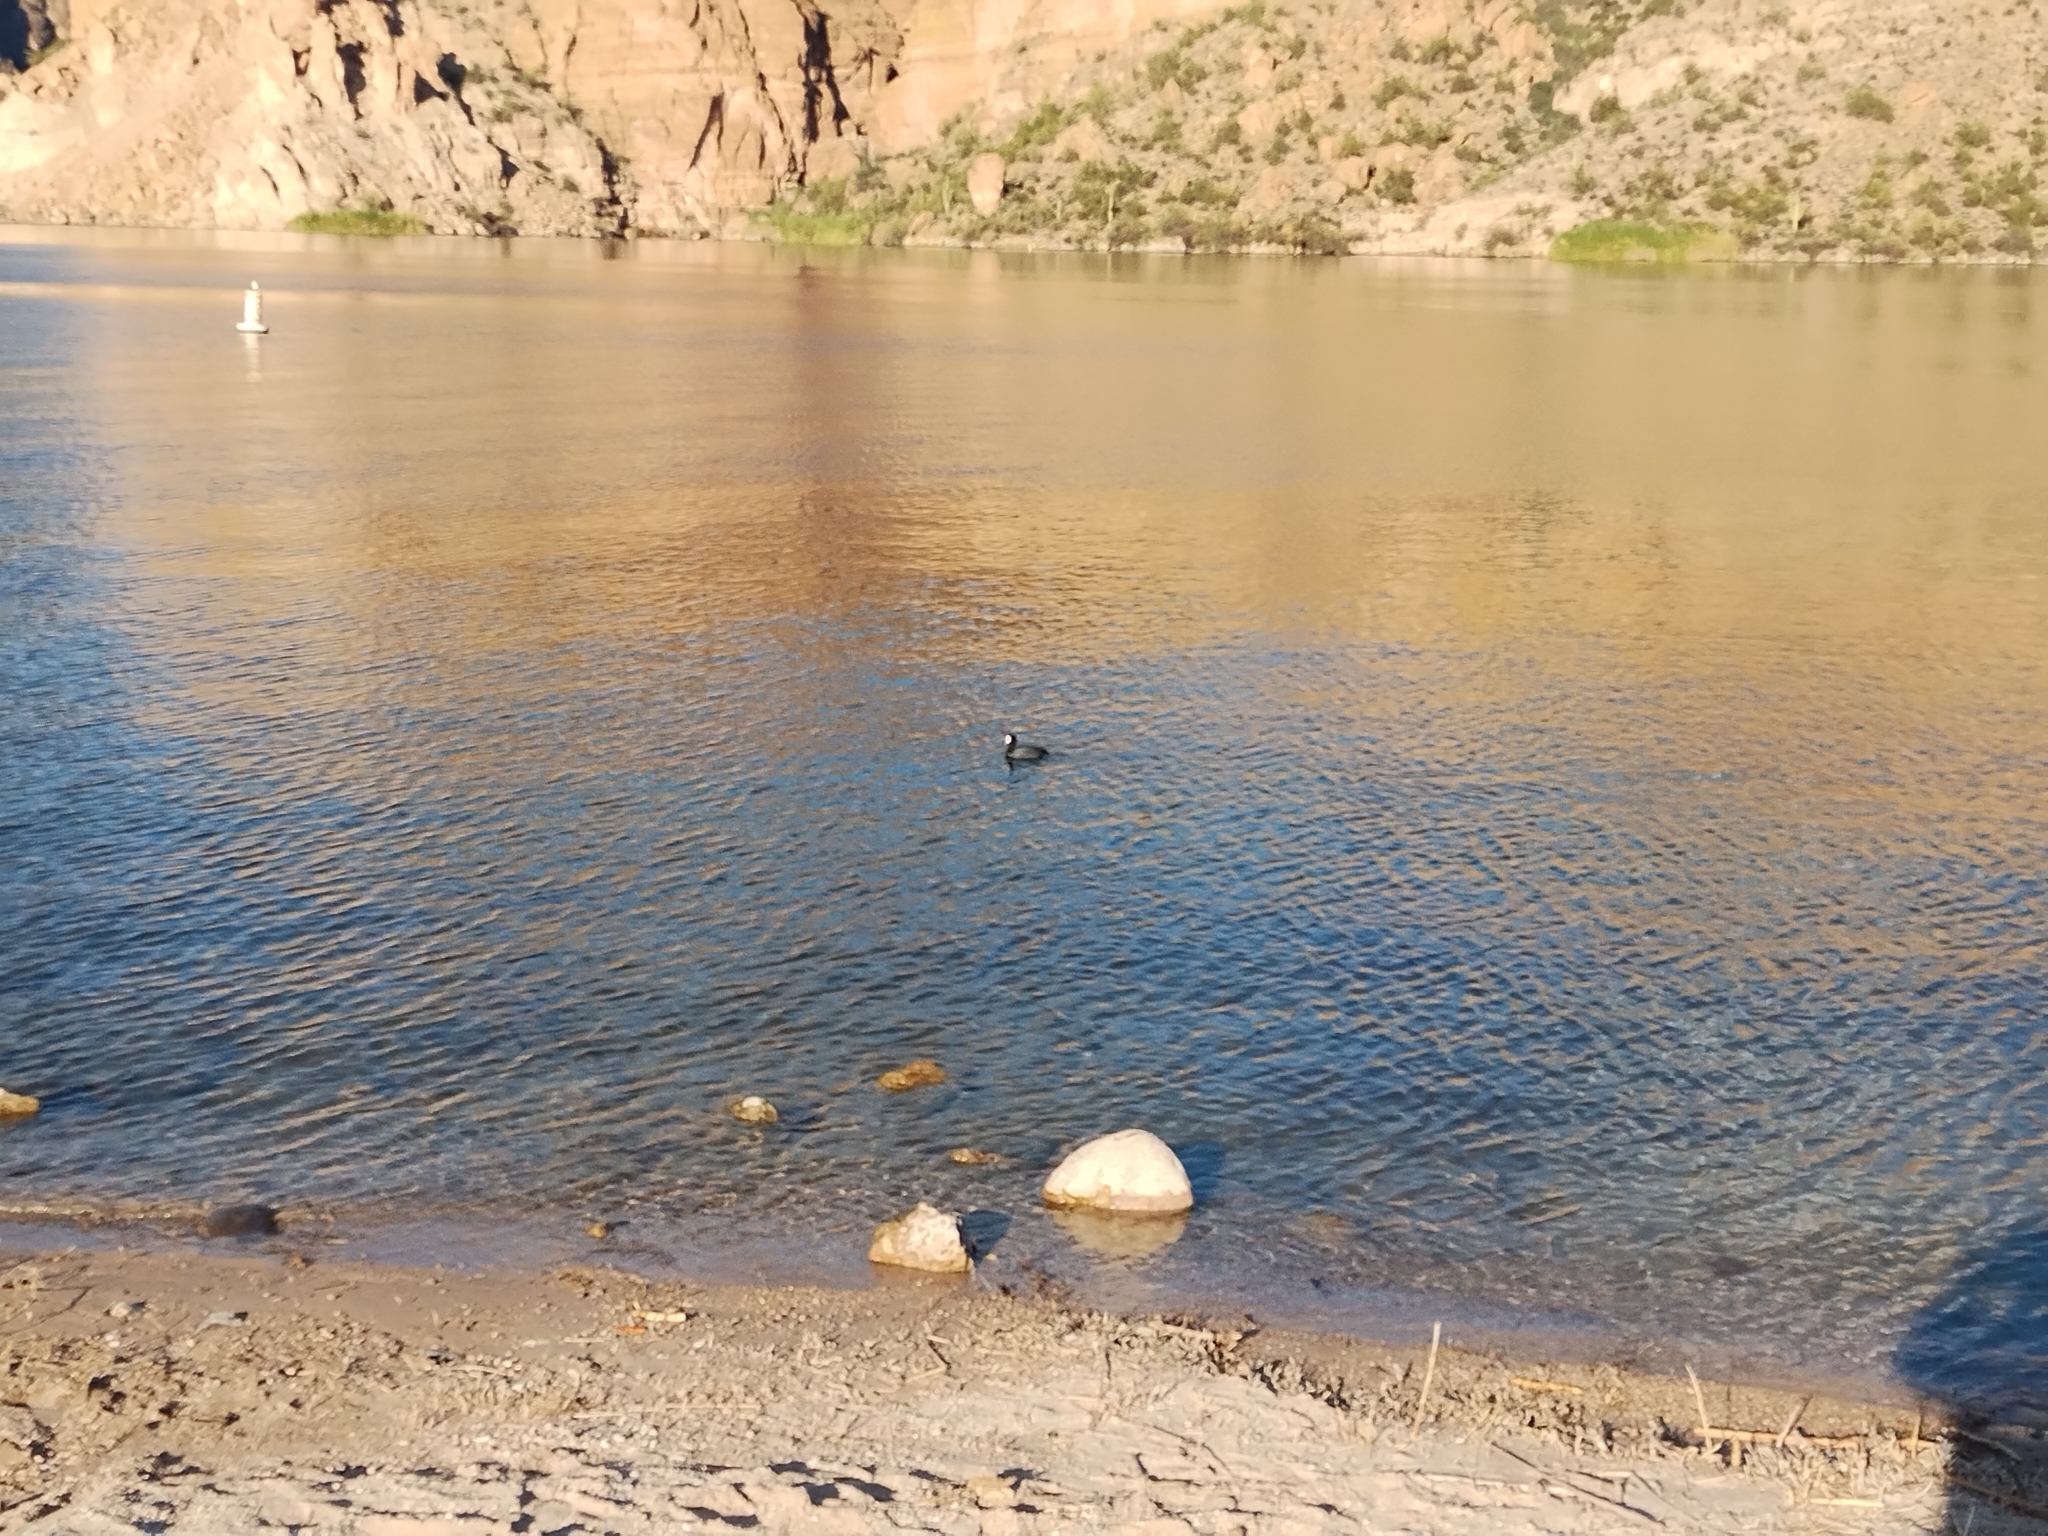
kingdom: Animalia
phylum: Chordata
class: Aves
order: Gruiformes
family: Rallidae
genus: Fulica
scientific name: Fulica americana
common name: American coot
